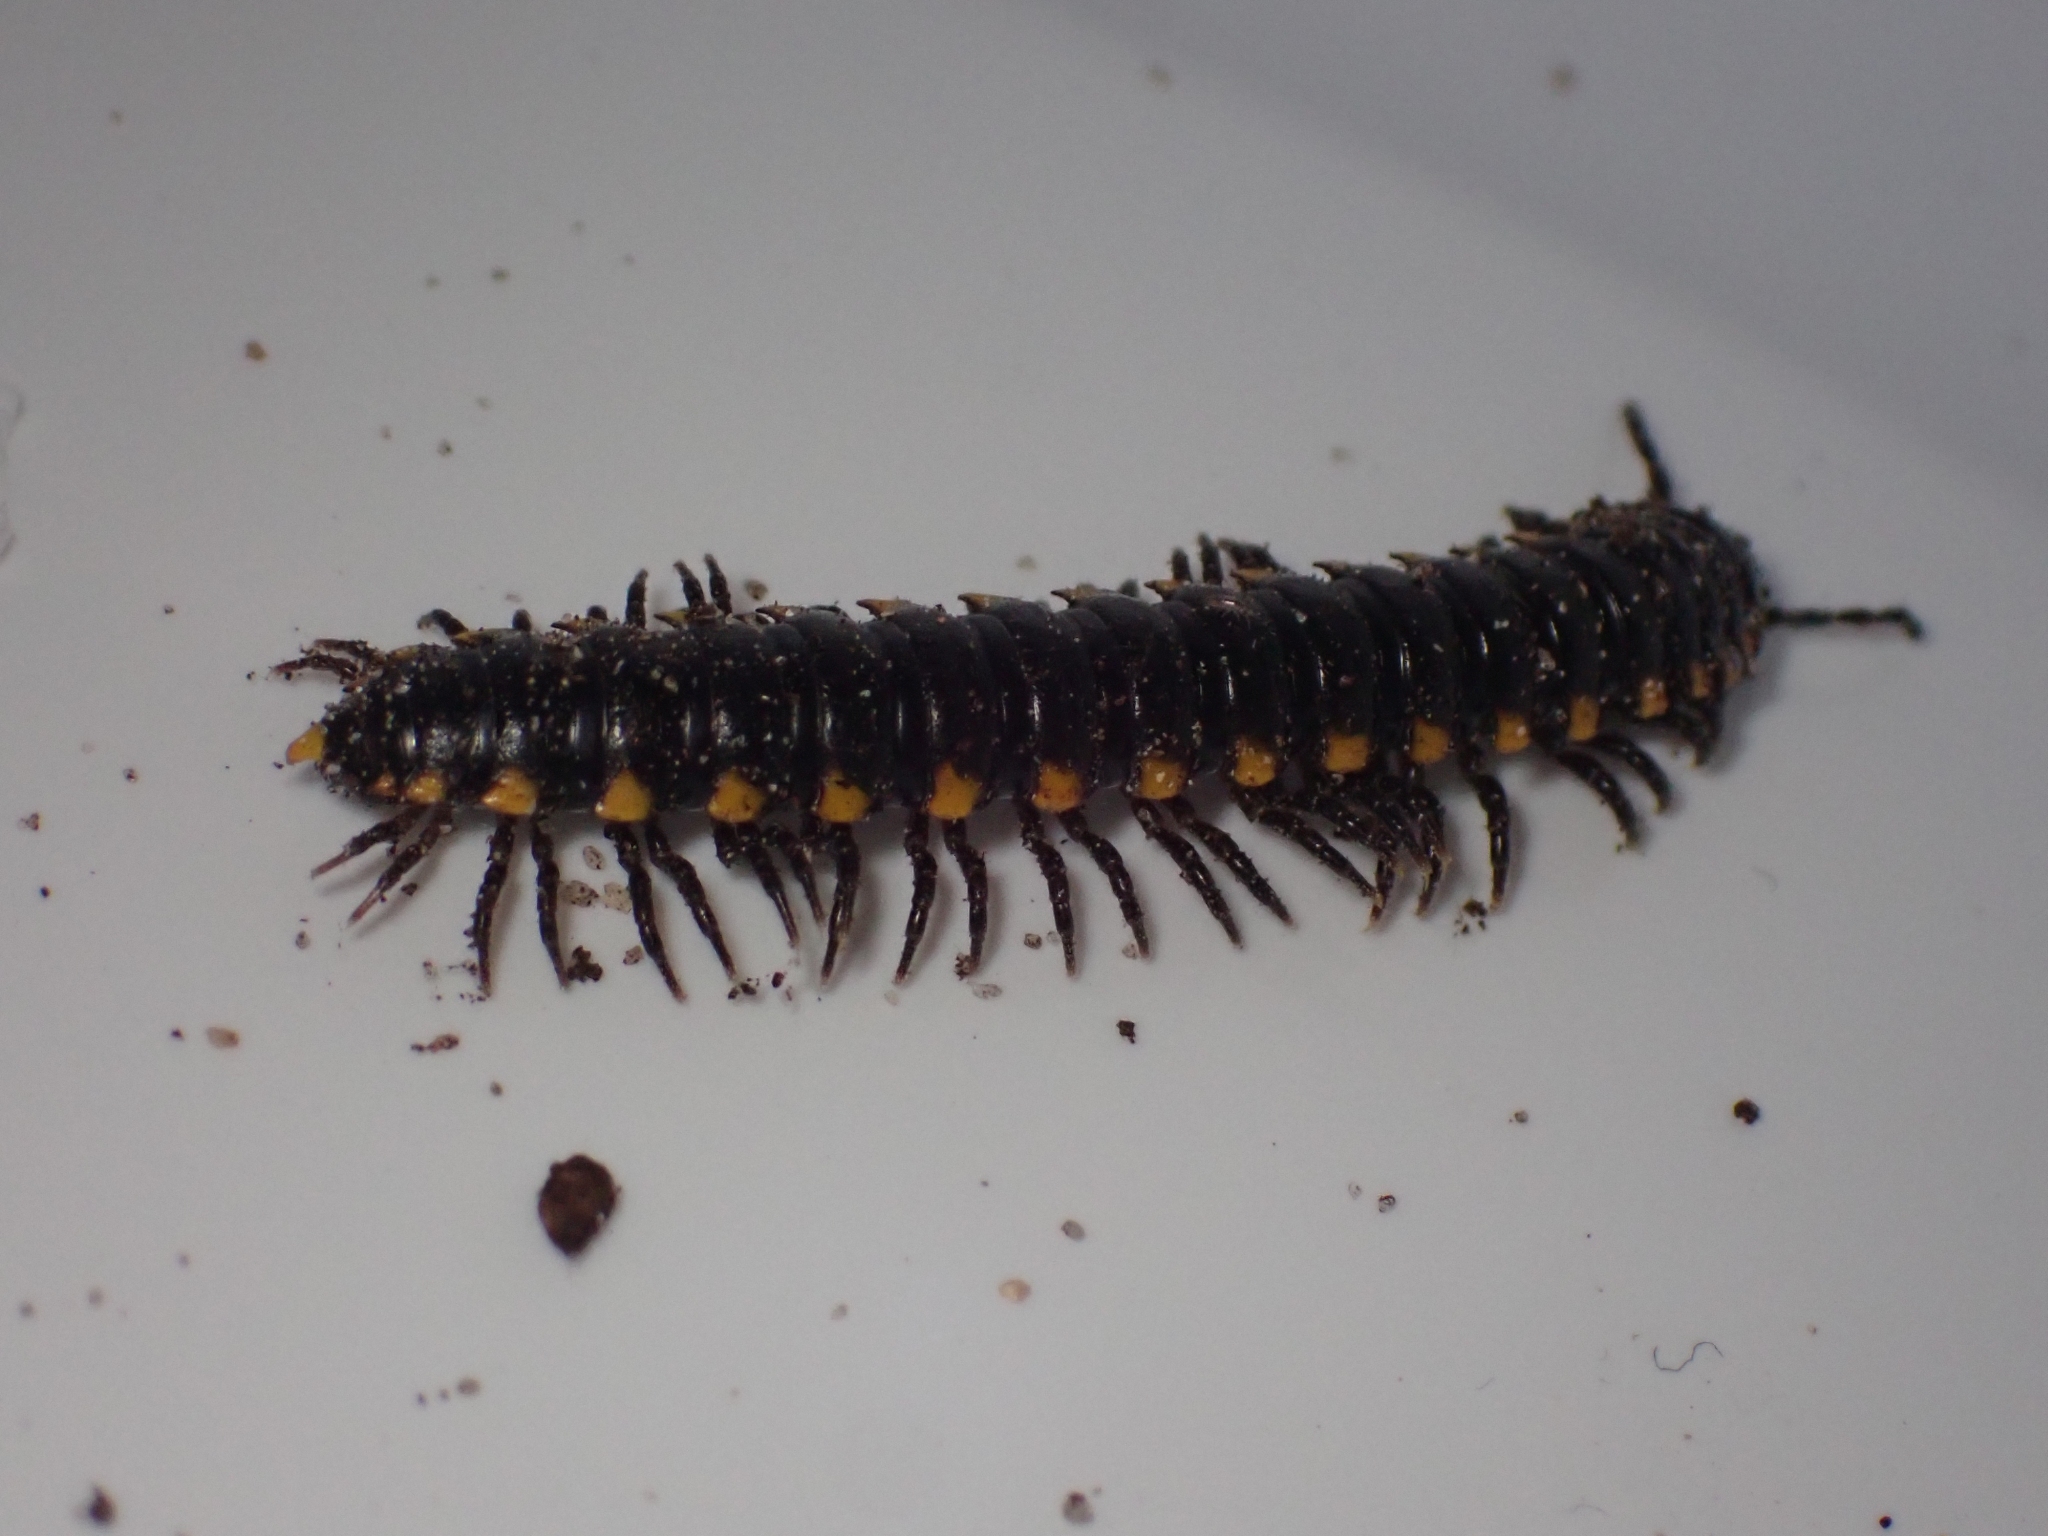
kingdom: Animalia
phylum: Arthropoda
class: Diplopoda
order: Polydesmida
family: Xystodesmidae
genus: Harpaphe
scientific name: Harpaphe haydeniana
